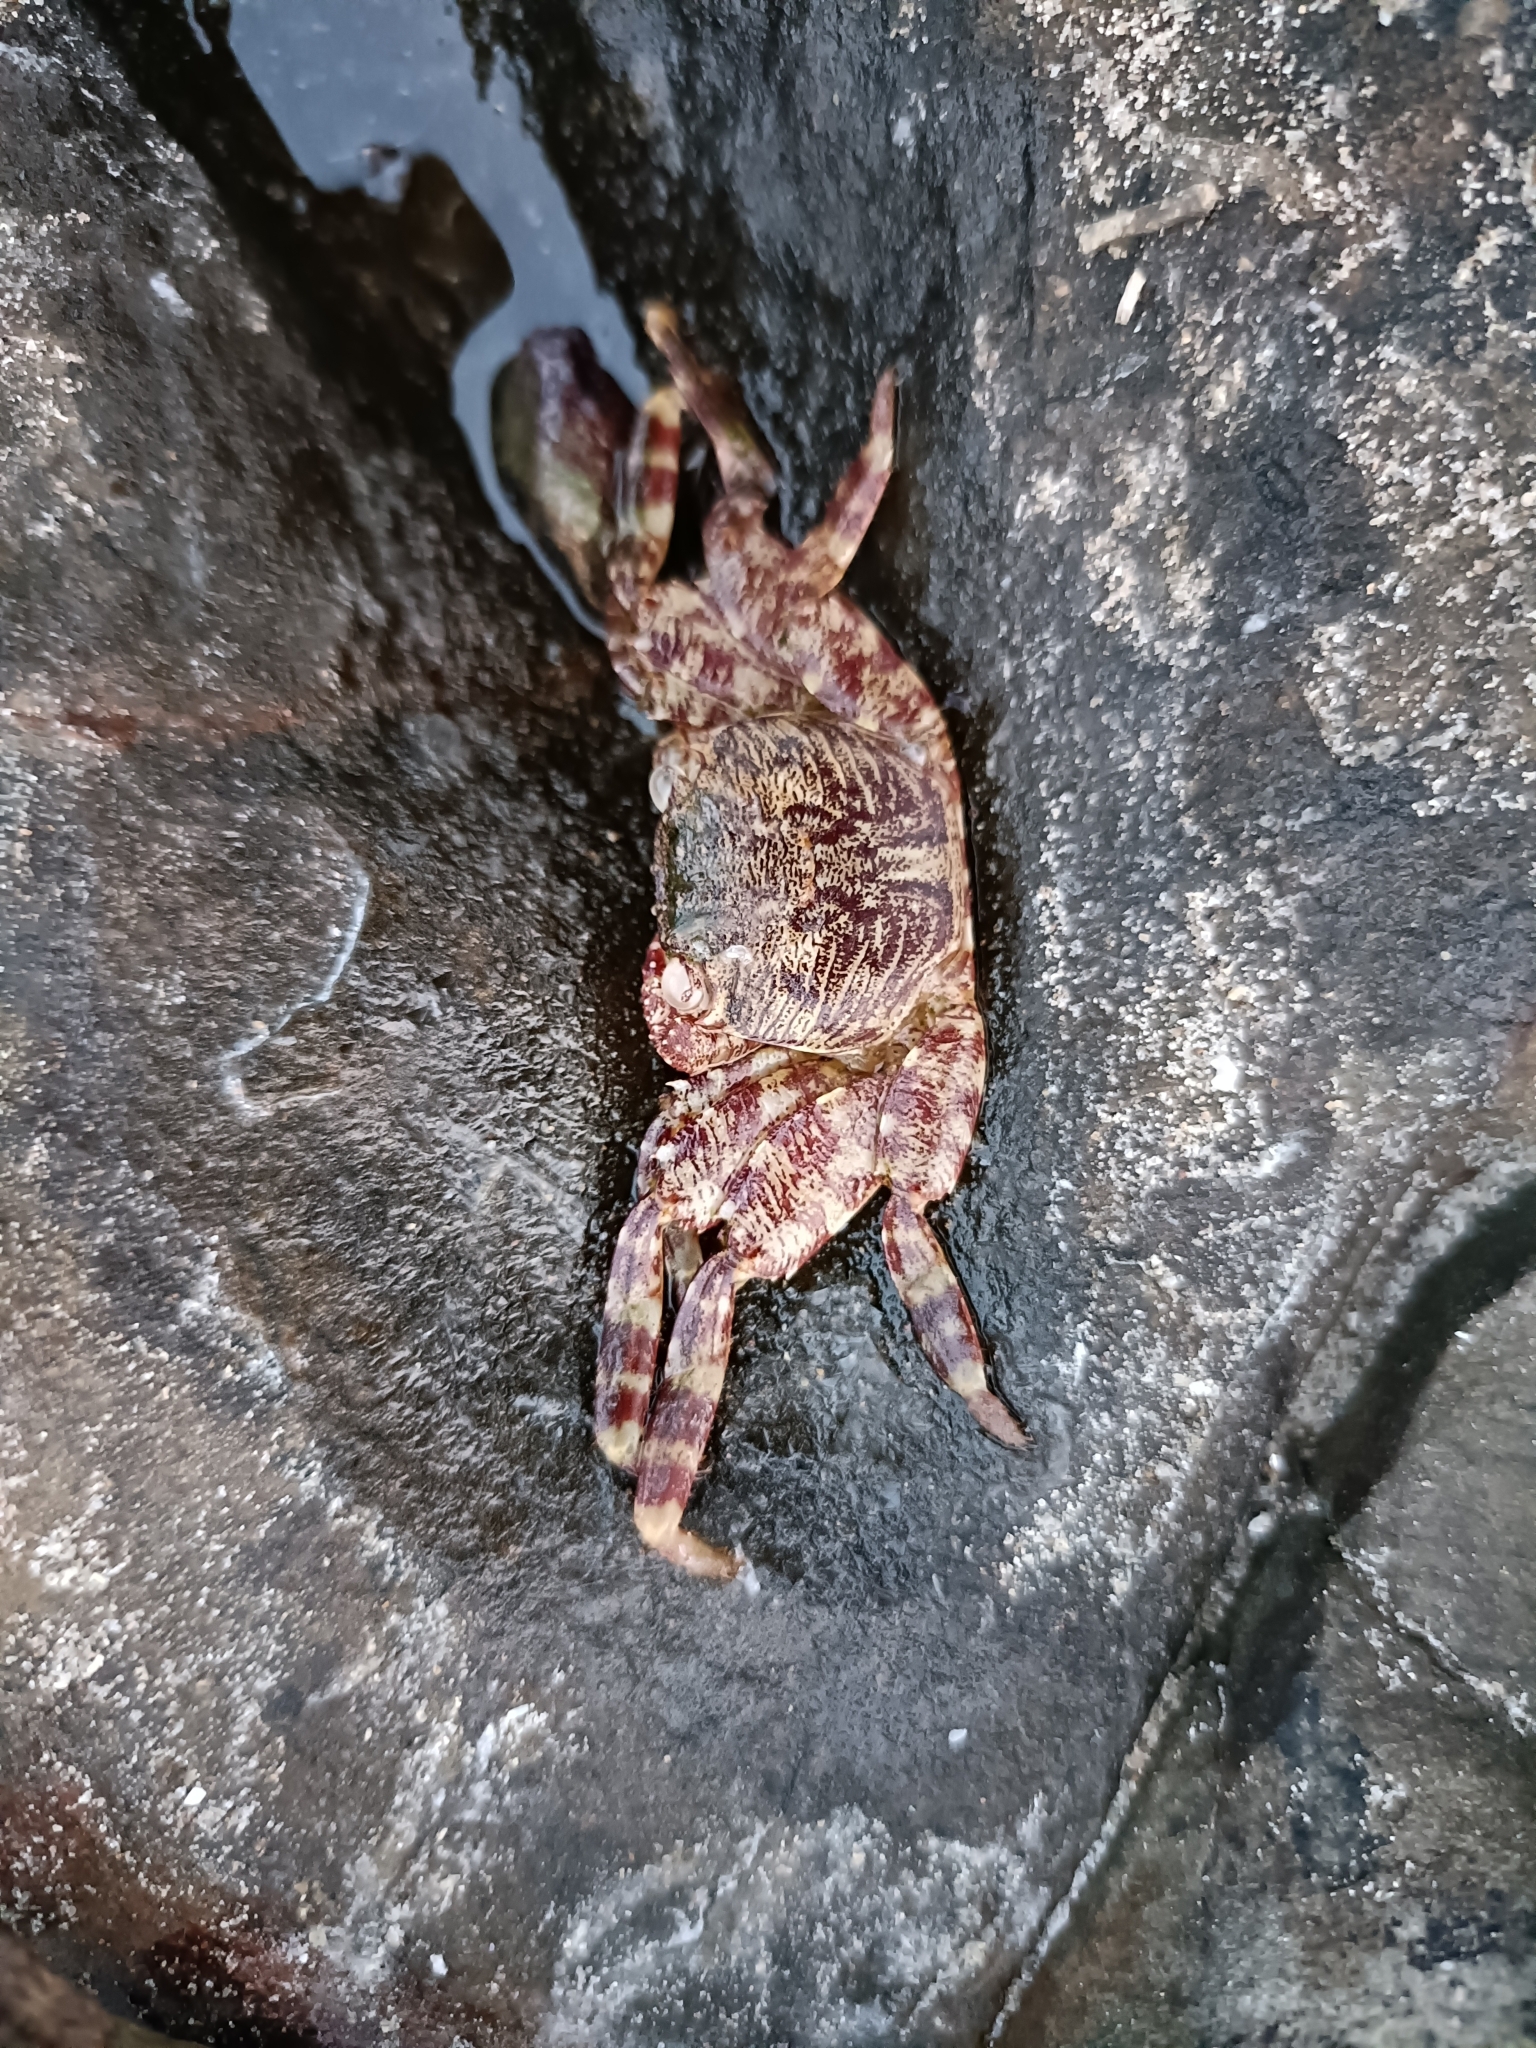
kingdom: Animalia
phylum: Arthropoda
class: Malacostraca
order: Decapoda
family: Grapsidae
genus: Grapsus
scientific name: Grapsus albolineatus
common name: Mottled lightfoot crab
